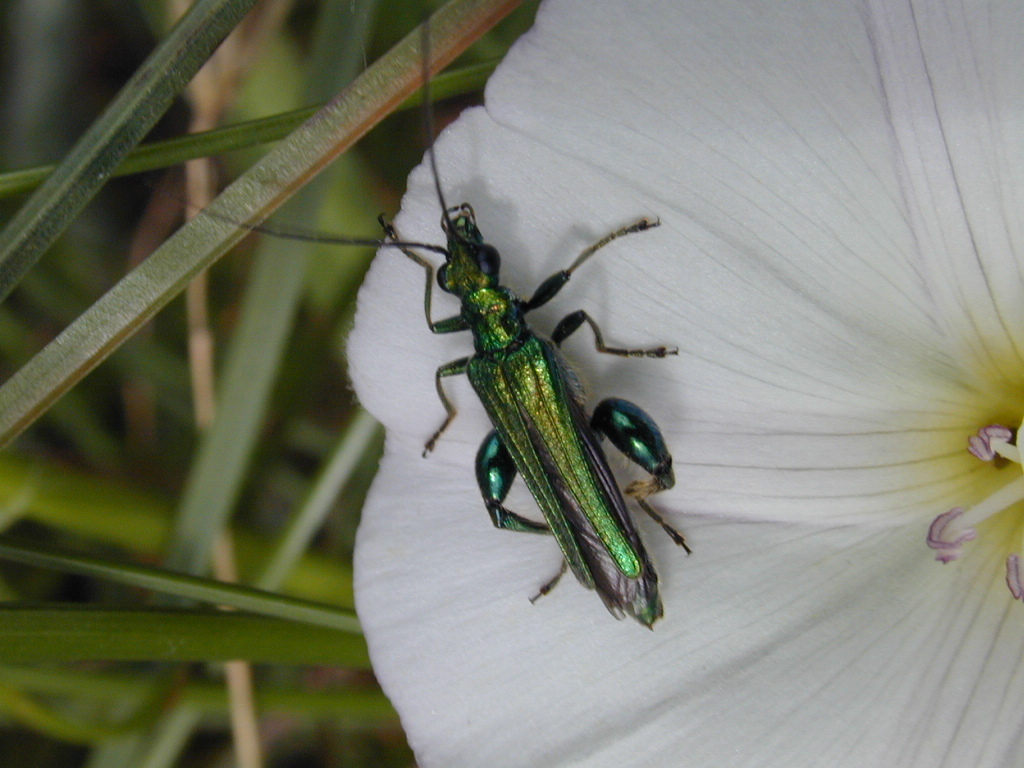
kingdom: Animalia
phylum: Arthropoda
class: Insecta
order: Coleoptera
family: Oedemeridae
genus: Oedemera
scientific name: Oedemera nobilis
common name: Swollen-thighed beetle
